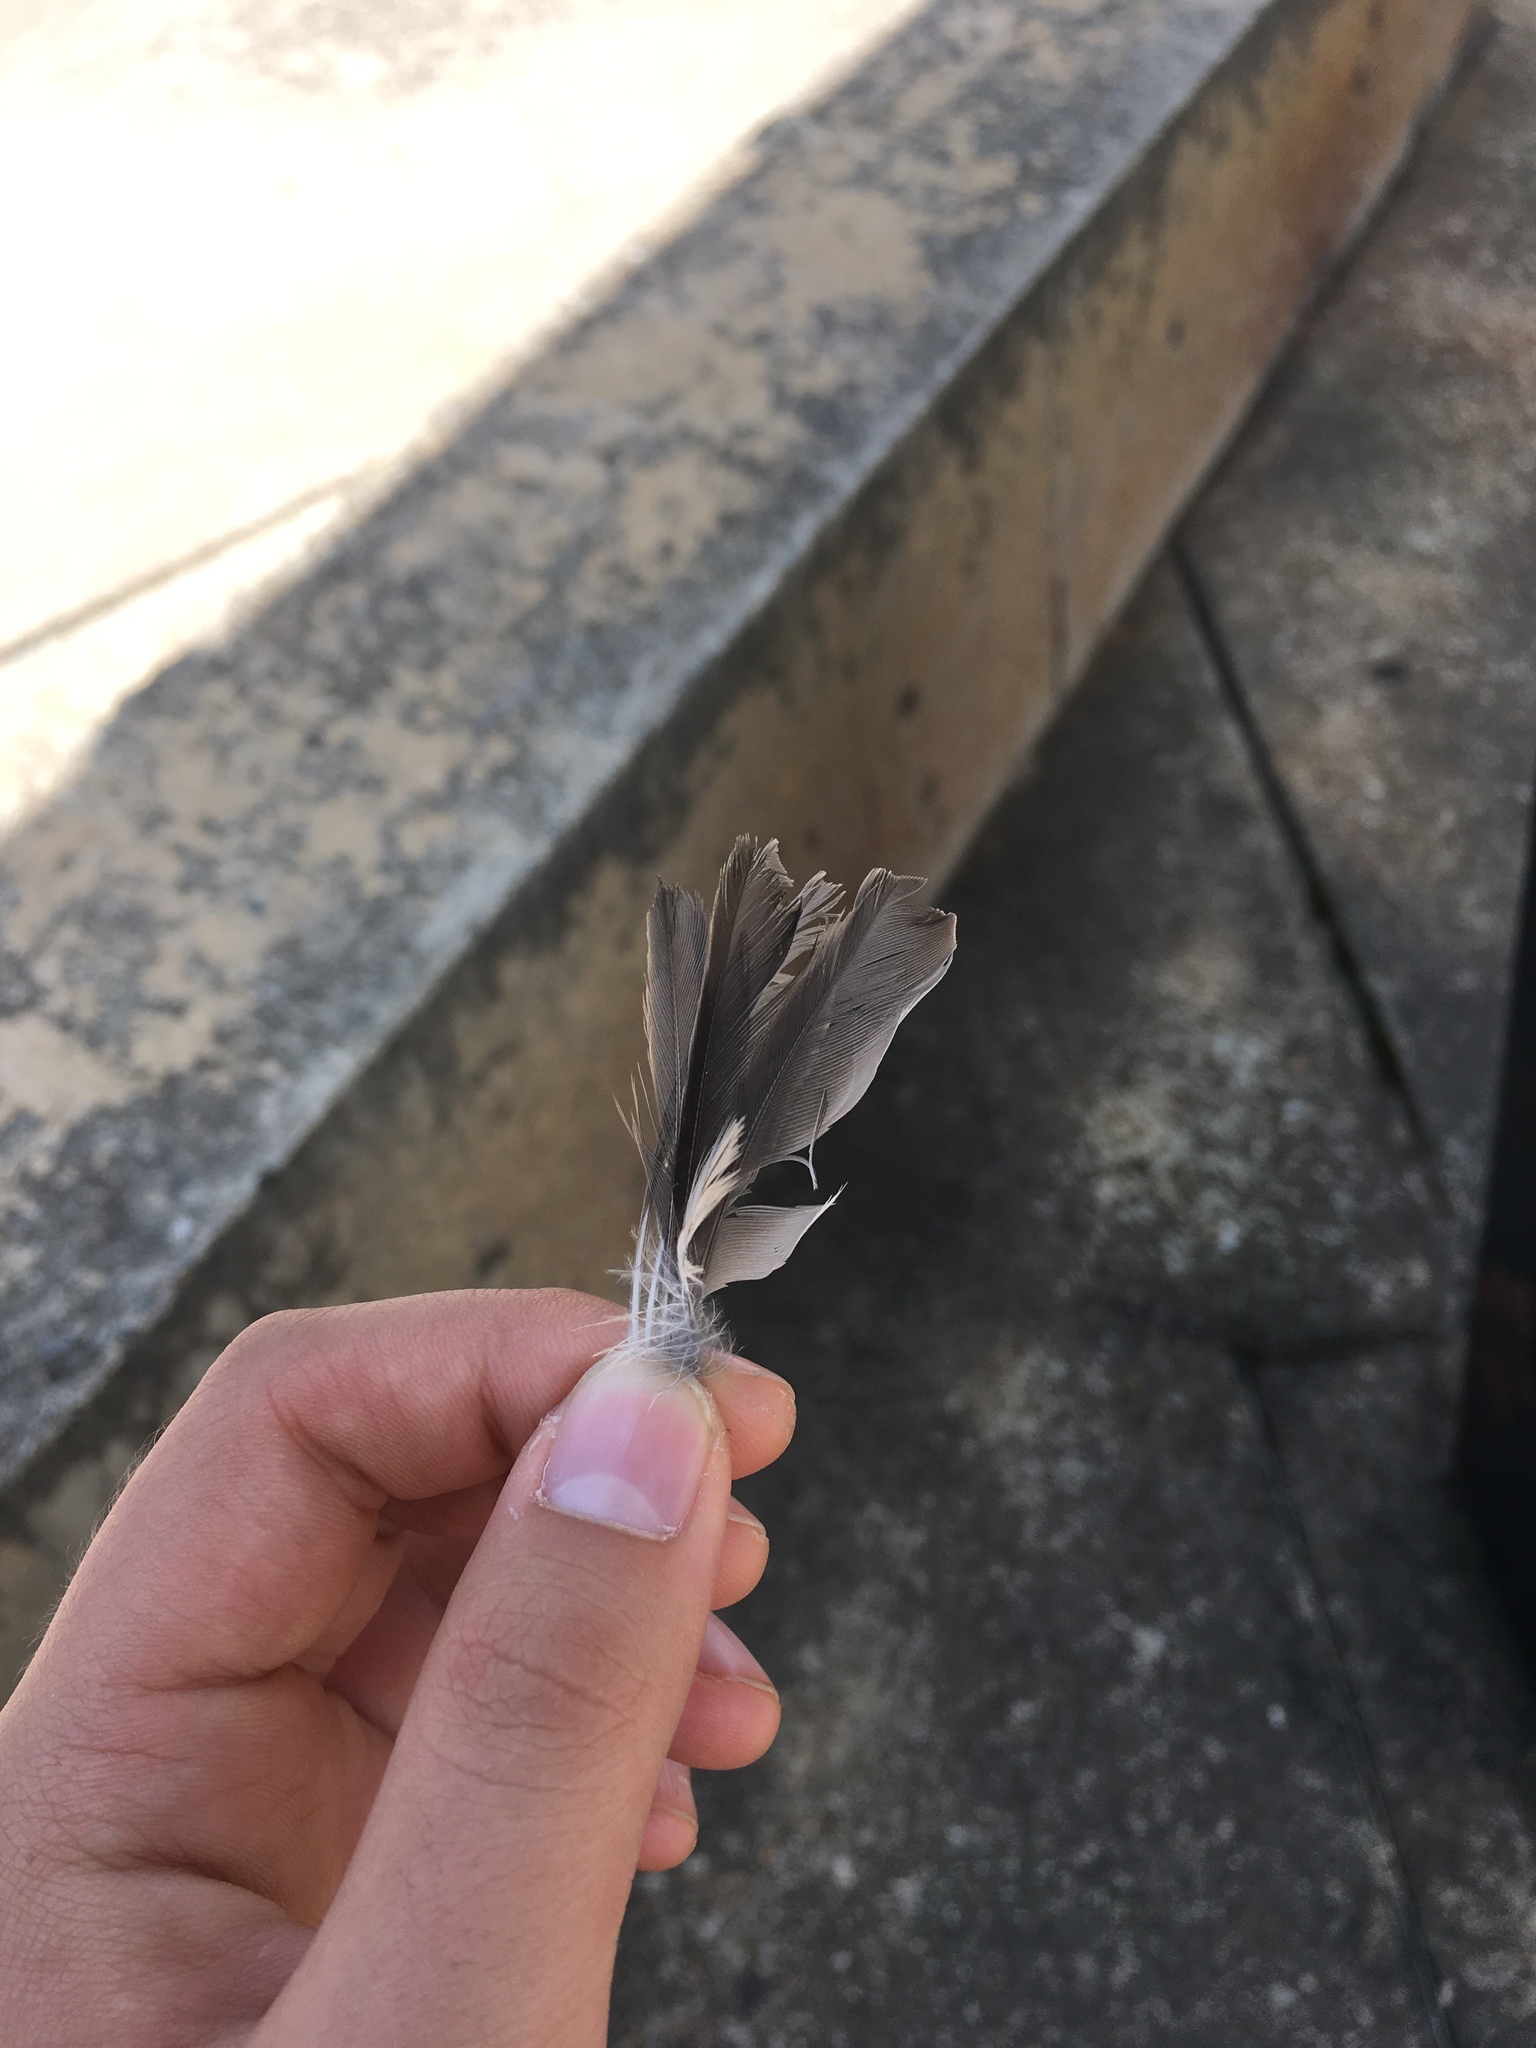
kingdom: Animalia
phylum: Chordata
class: Aves
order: Passeriformes
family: Passeridae
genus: Passer
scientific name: Passer domesticus
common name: House sparrow
